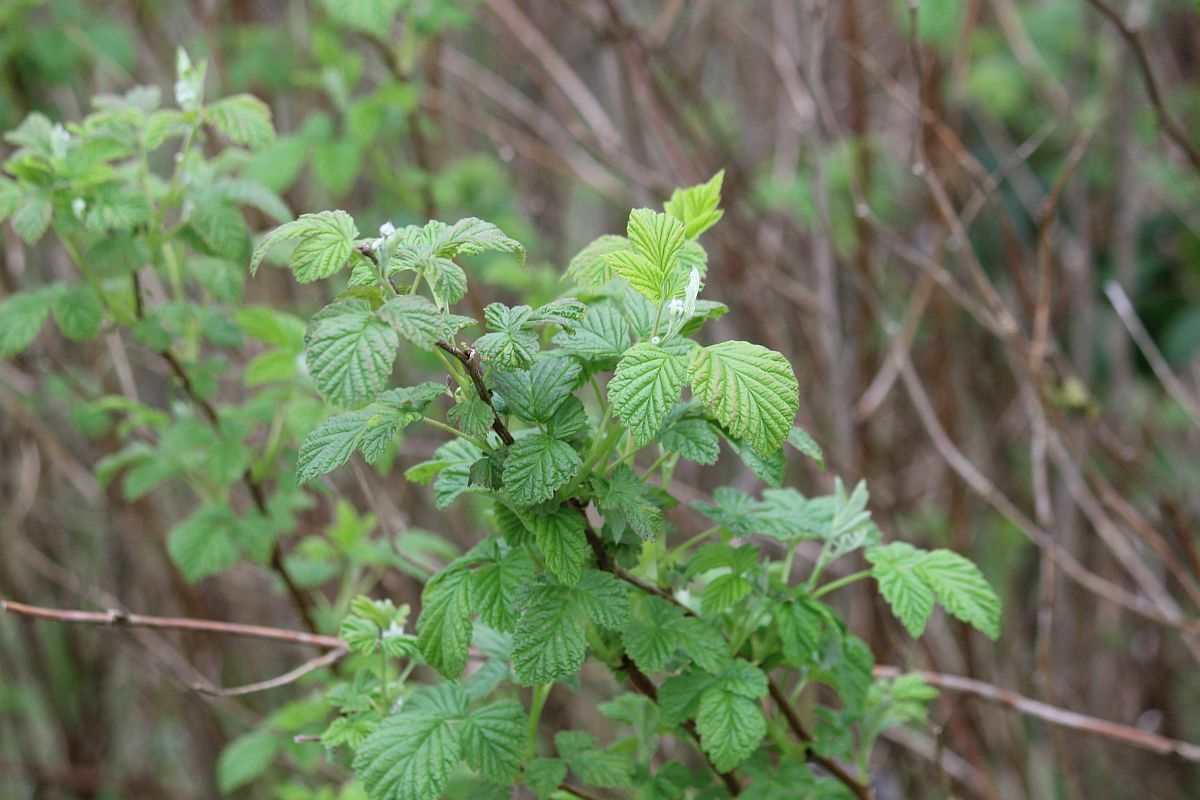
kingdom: Plantae
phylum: Tracheophyta
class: Magnoliopsida
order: Rosales
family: Rosaceae
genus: Rubus
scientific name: Rubus idaeus
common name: Raspberry
